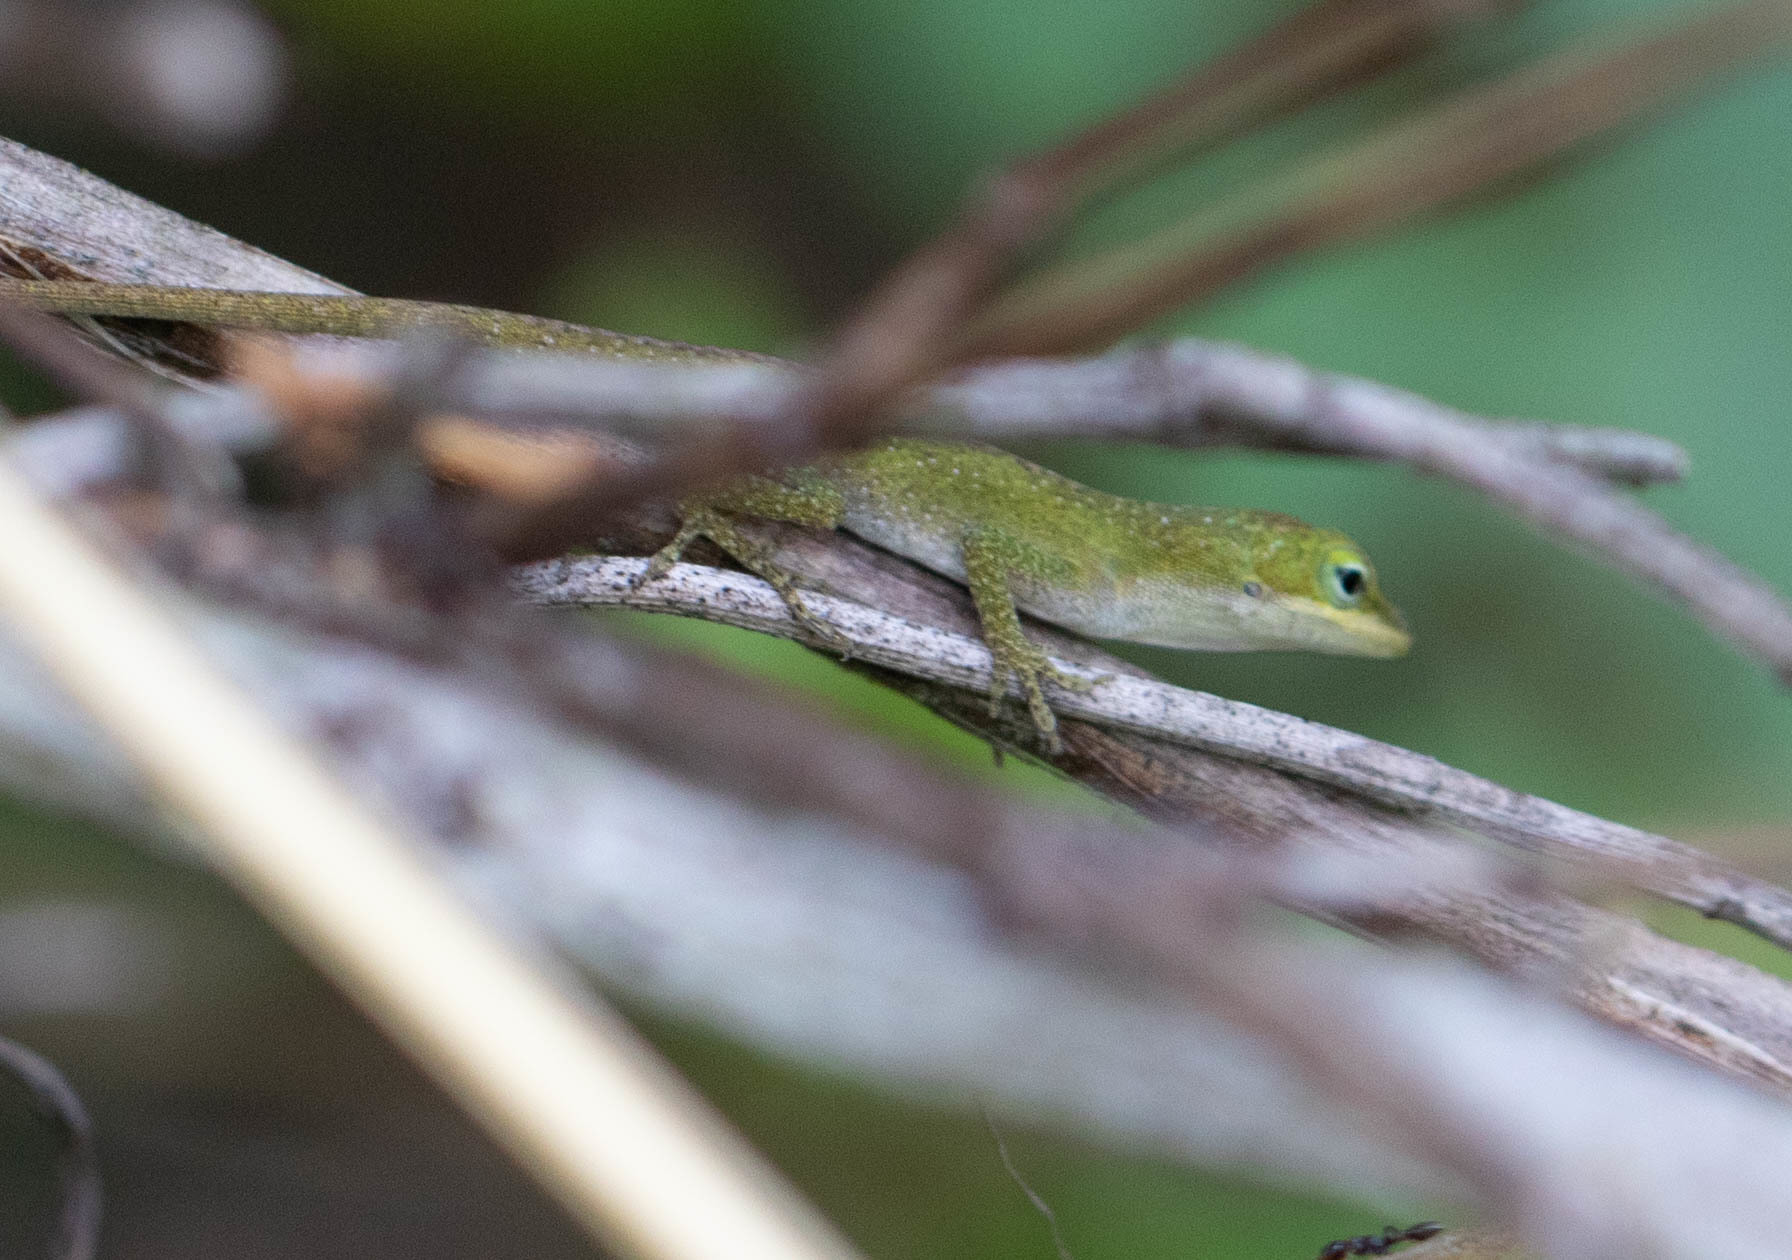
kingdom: Animalia
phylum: Chordata
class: Squamata
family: Dactyloidae
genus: Anolis
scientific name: Anolis carolinensis
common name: Green anole
